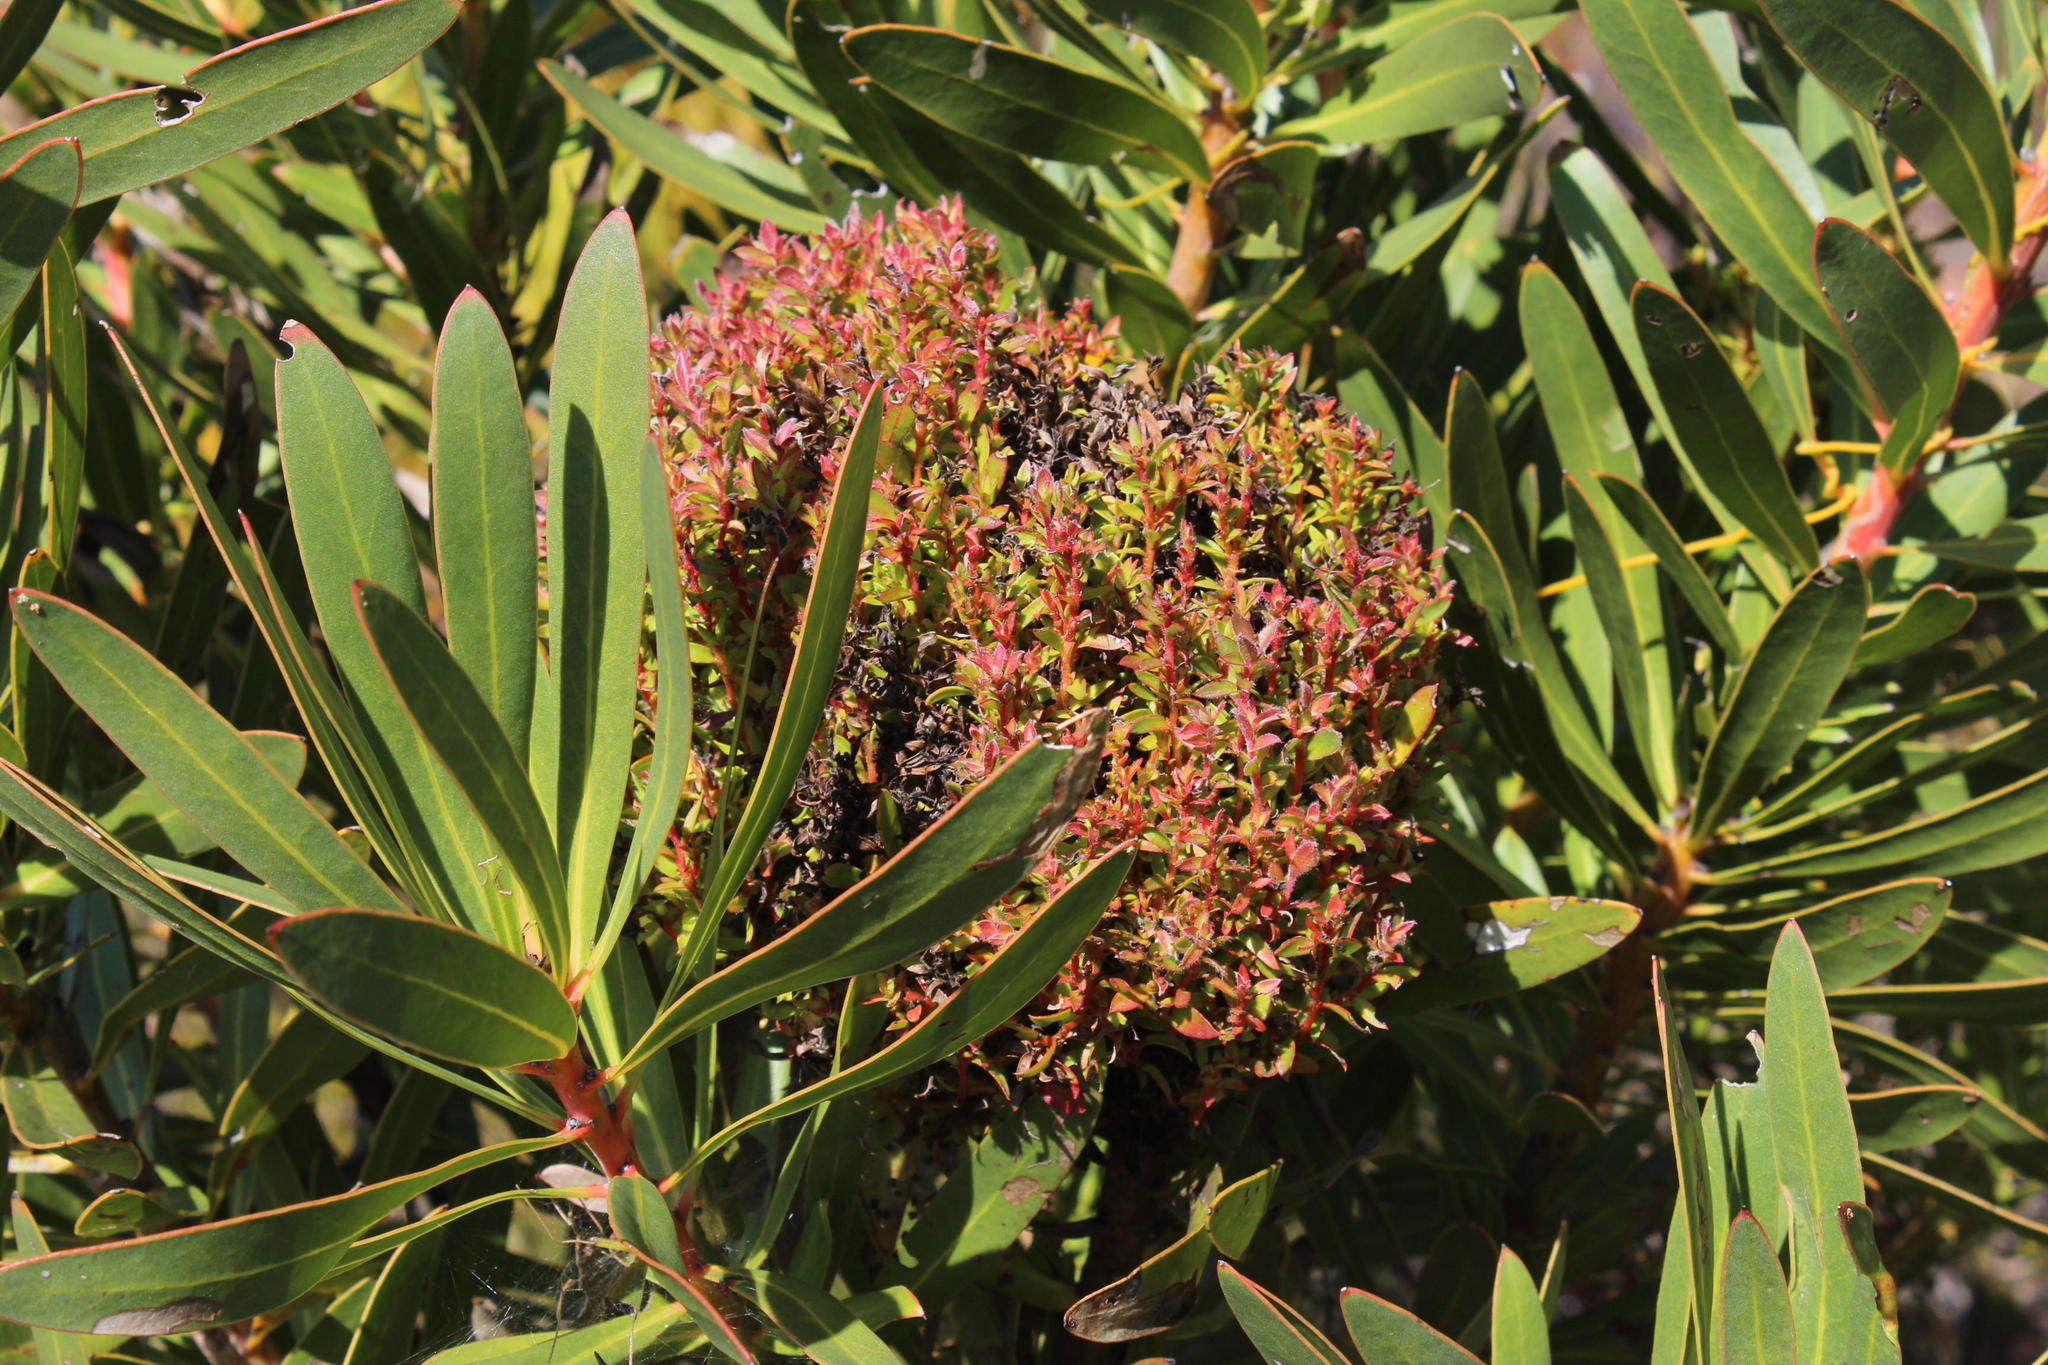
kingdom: Bacteria
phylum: Firmicutes
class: Bacilli
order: Acholeplasmatales
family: Acholeplasmataceae
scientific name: Acholeplasmataceae
